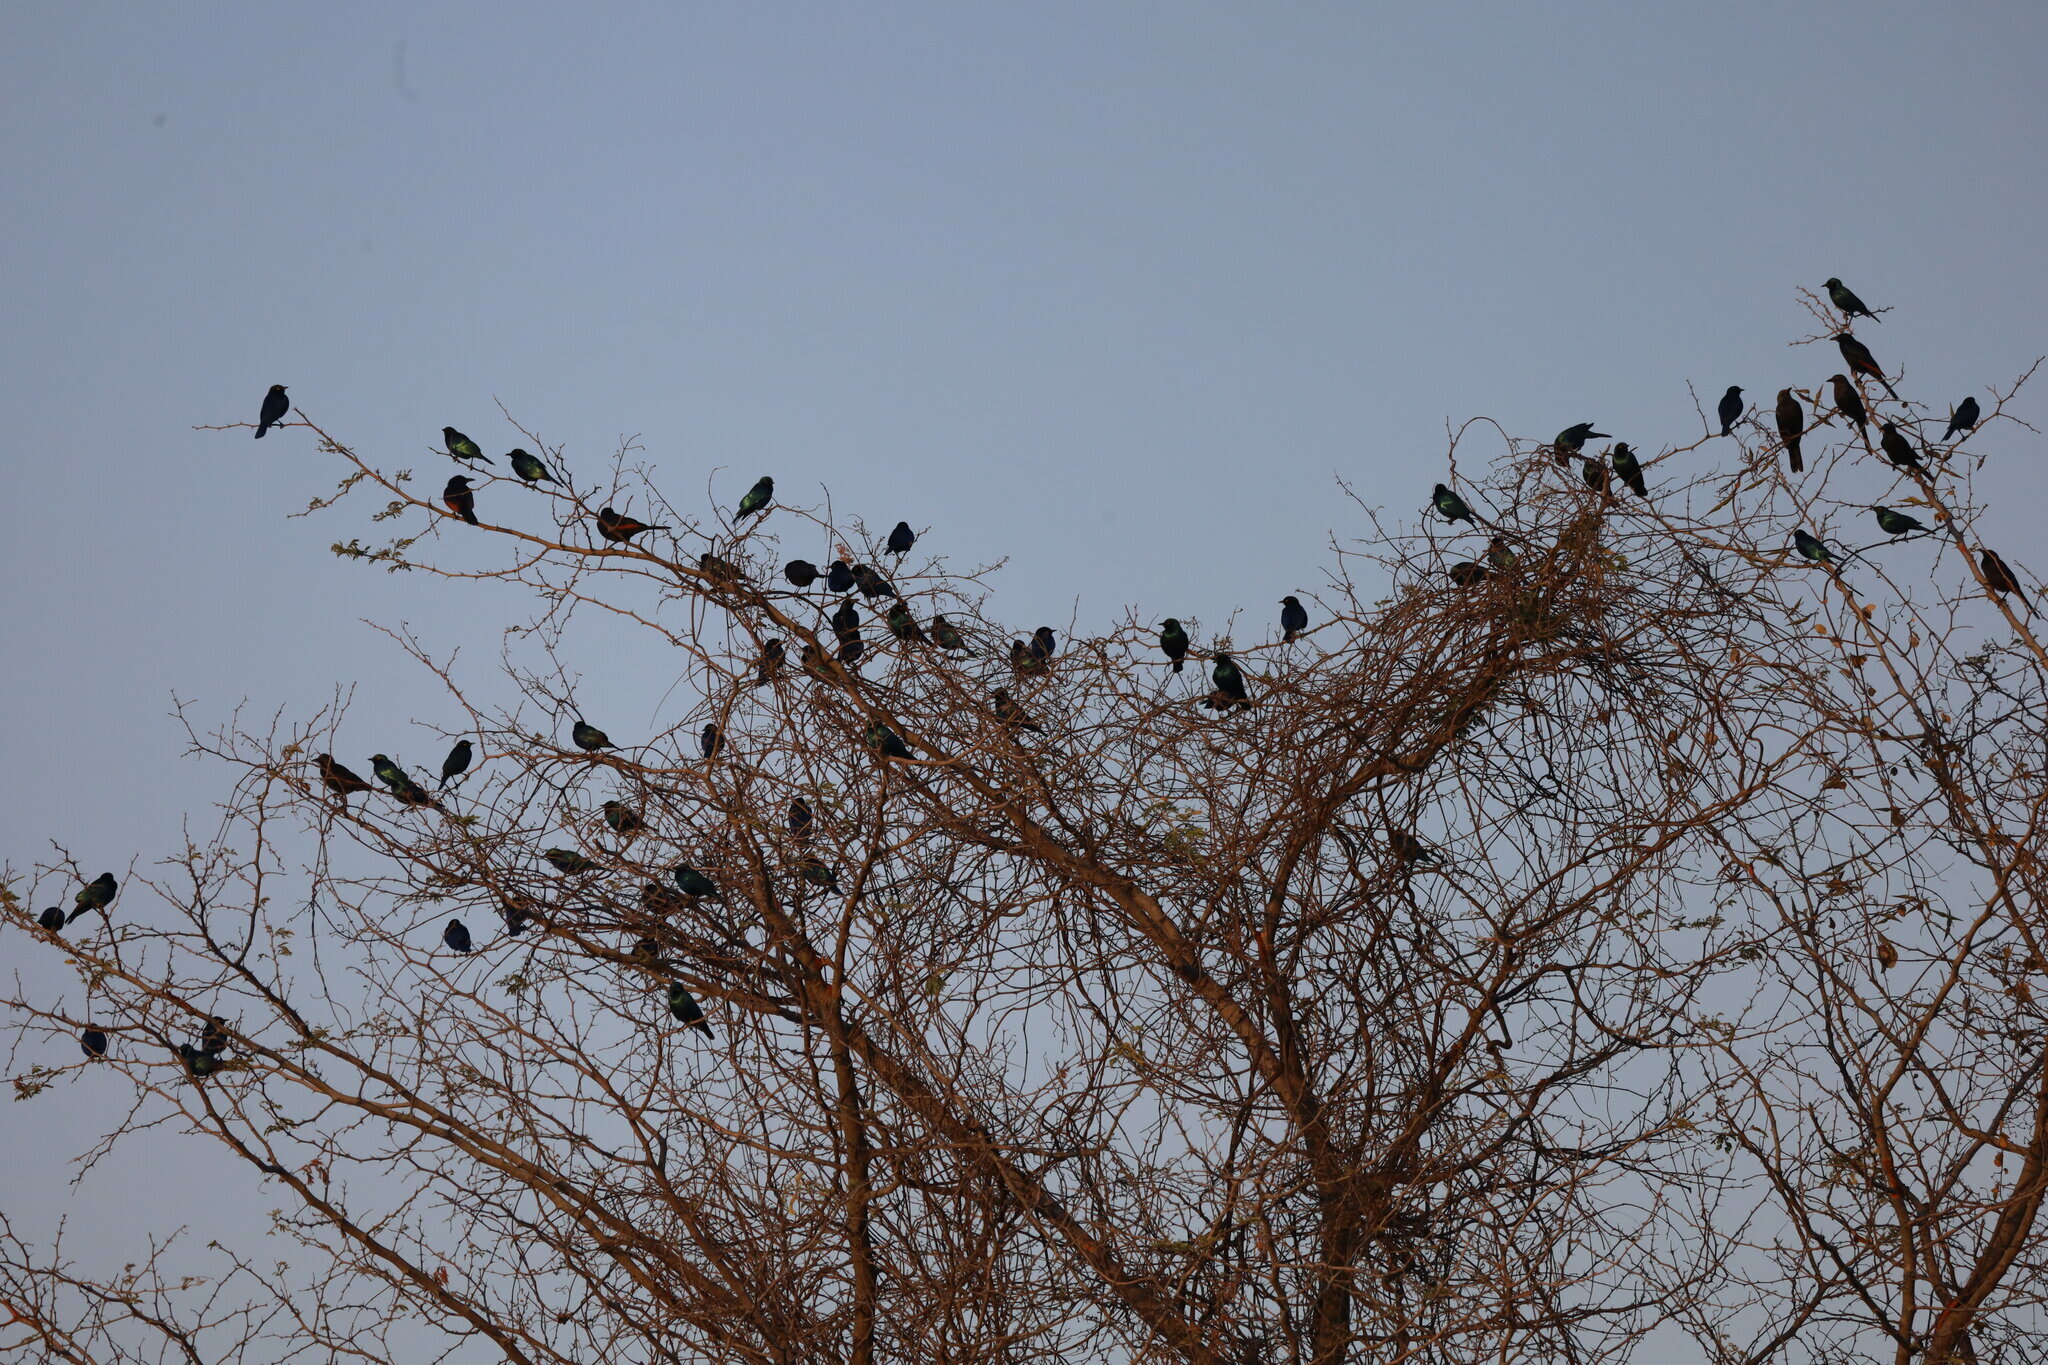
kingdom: Animalia
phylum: Chordata
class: Aves
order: Passeriformes
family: Sturnidae
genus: Onychognathus
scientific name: Onychognathus morio
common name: Red-winged starling
